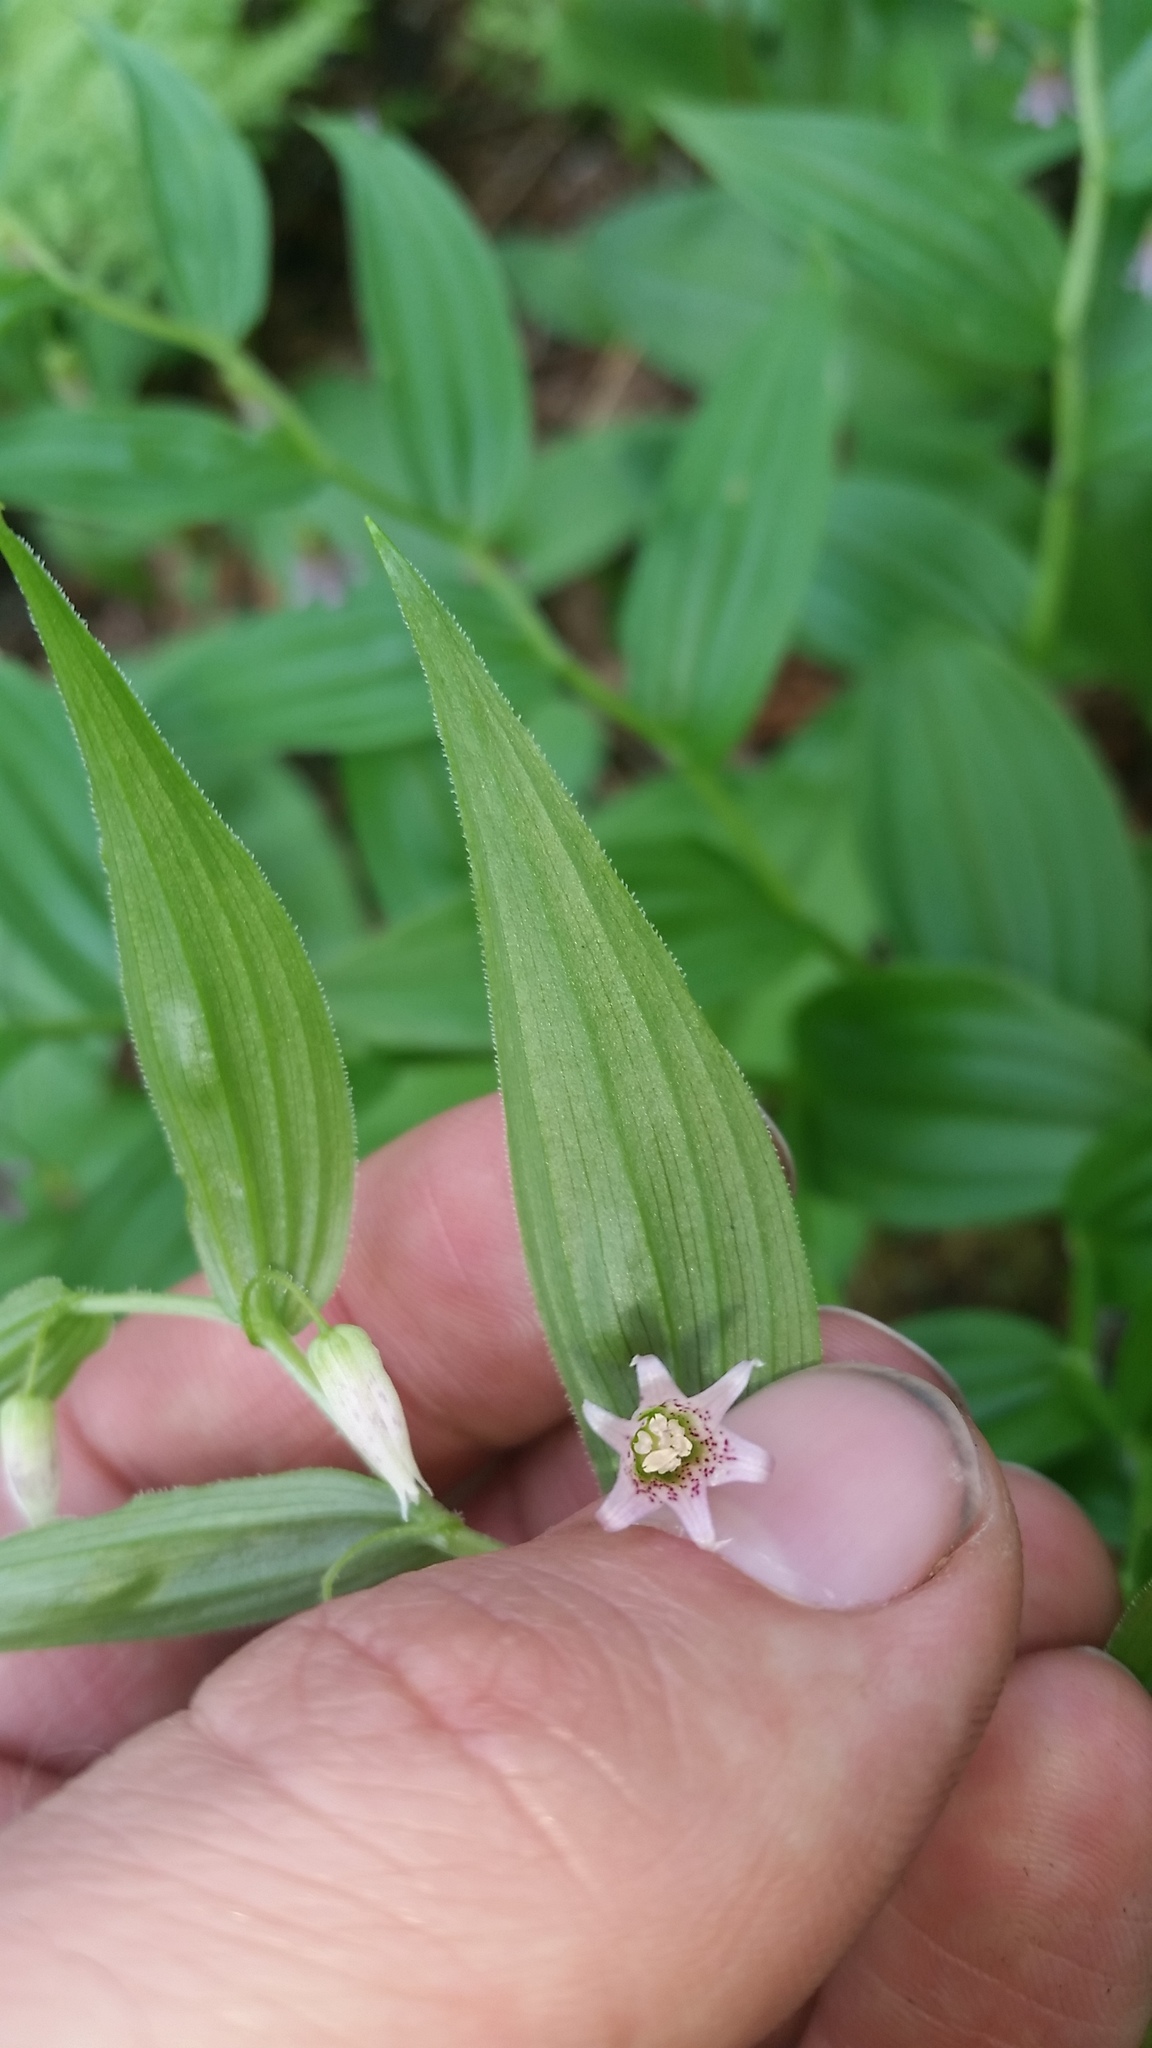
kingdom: Plantae
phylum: Tracheophyta
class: Liliopsida
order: Liliales
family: Liliaceae
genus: Streptopus
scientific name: Streptopus lanceolatus
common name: Rose mandarin
